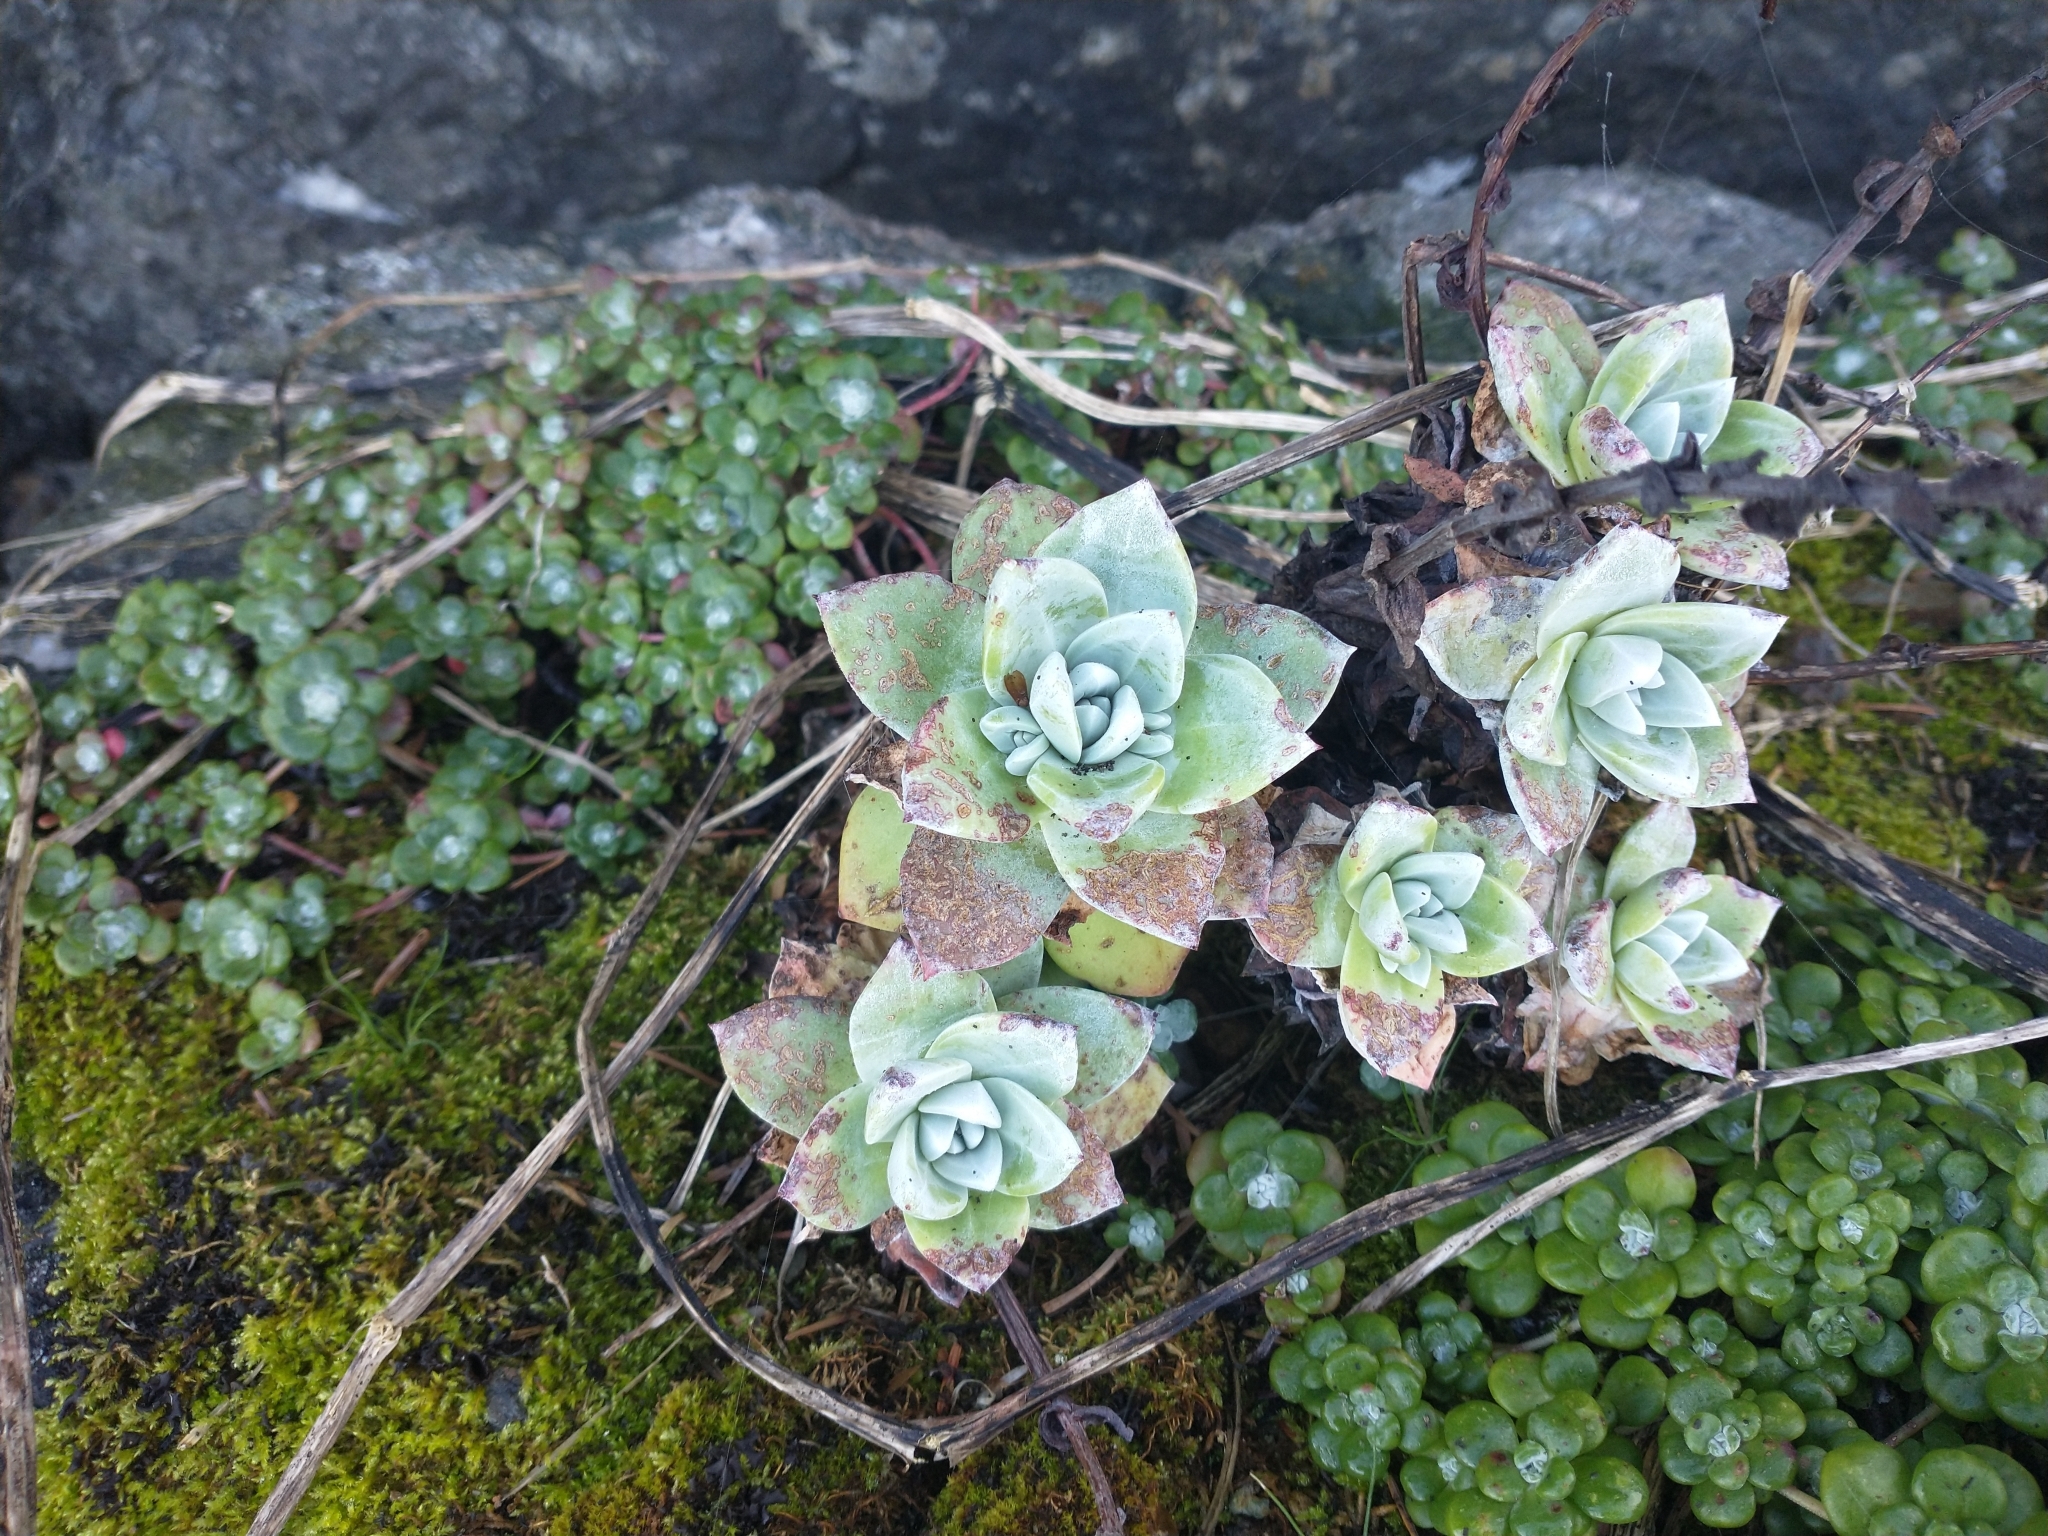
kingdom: Plantae
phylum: Tracheophyta
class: Magnoliopsida
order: Saxifragales
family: Crassulaceae
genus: Dudleya
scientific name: Dudleya farinosa
